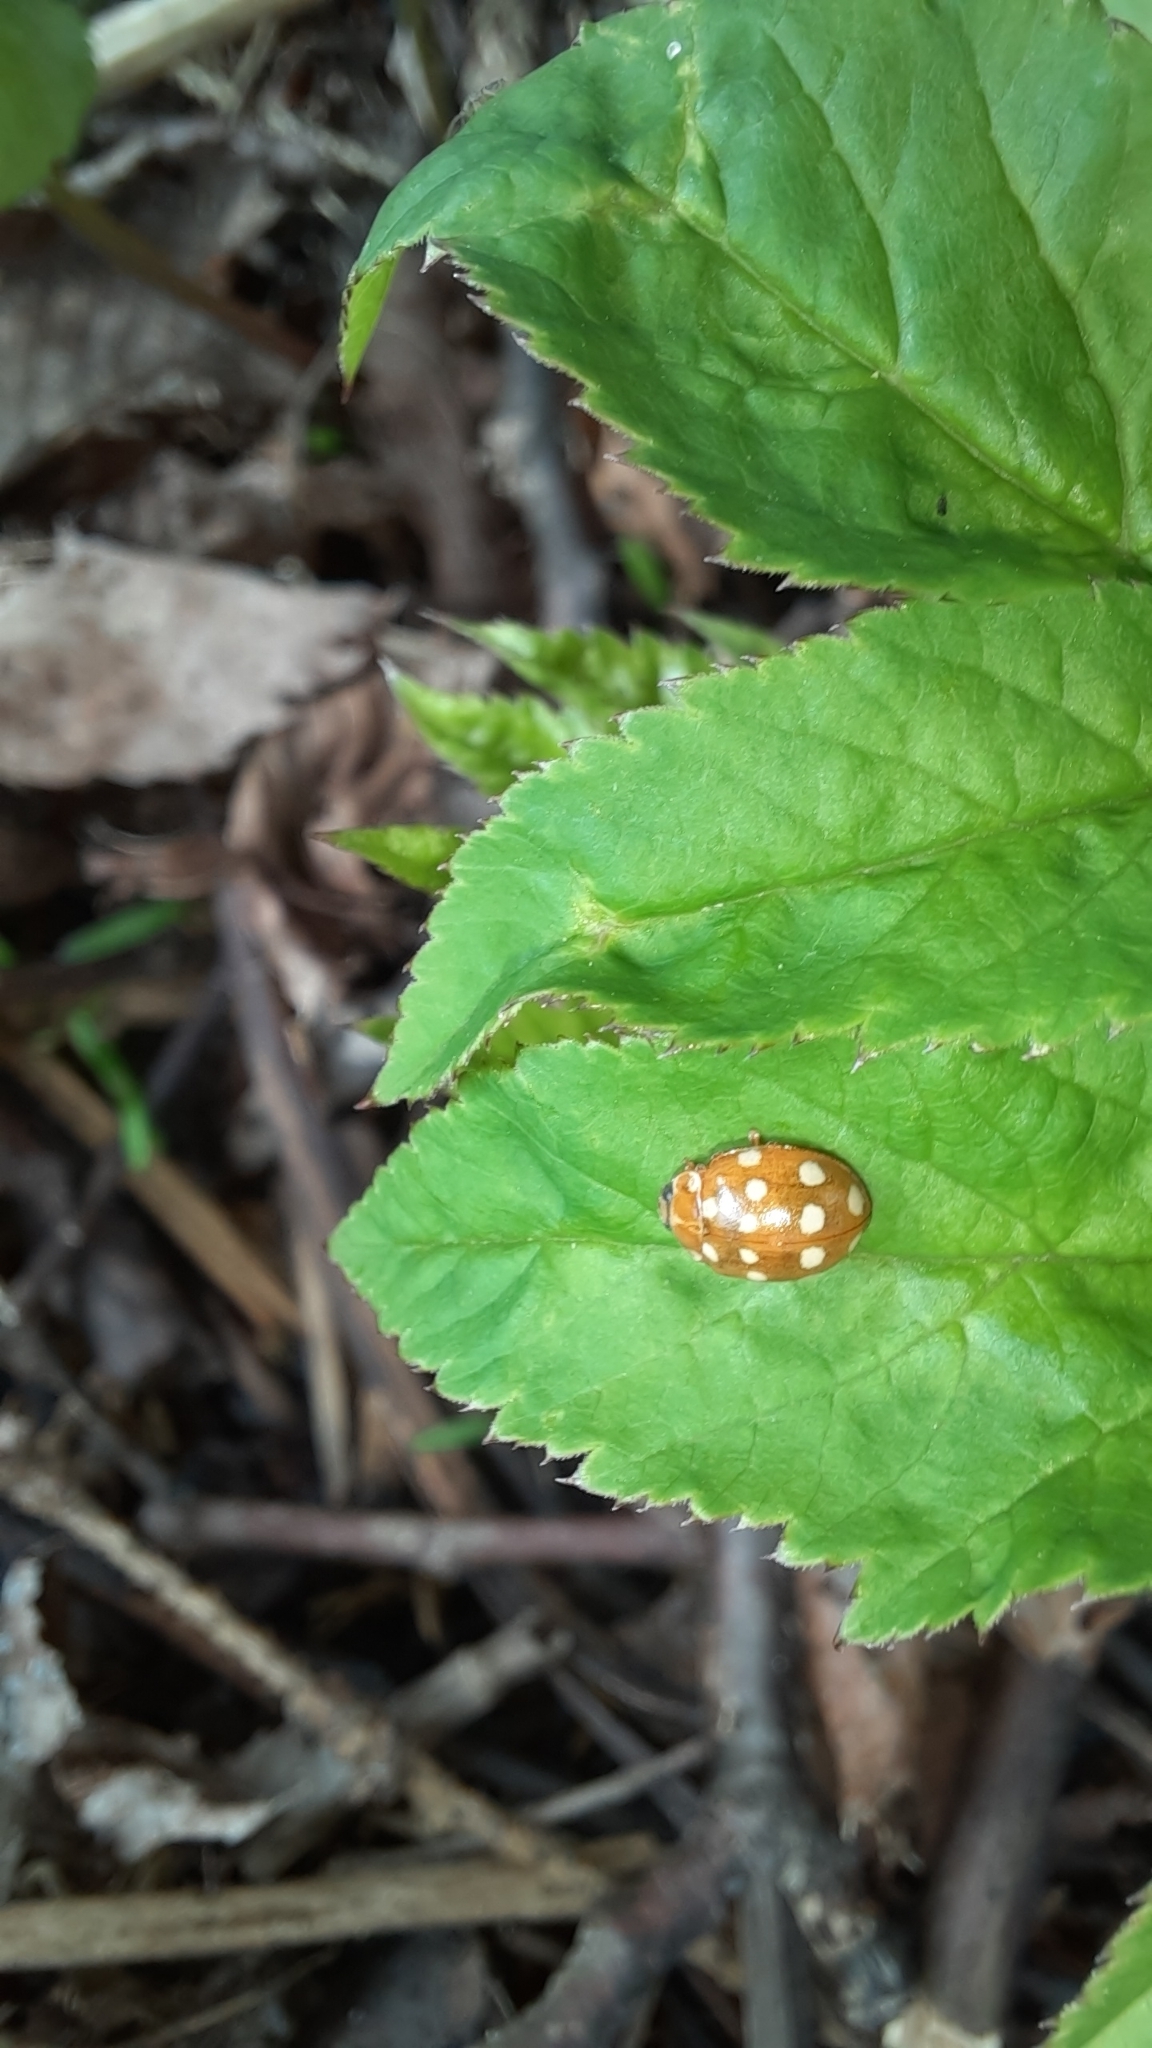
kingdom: Animalia
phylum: Arthropoda
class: Insecta
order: Coleoptera
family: Coccinellidae
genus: Calvia
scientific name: Calvia quatuordecimguttata
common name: Cream-spot ladybird
